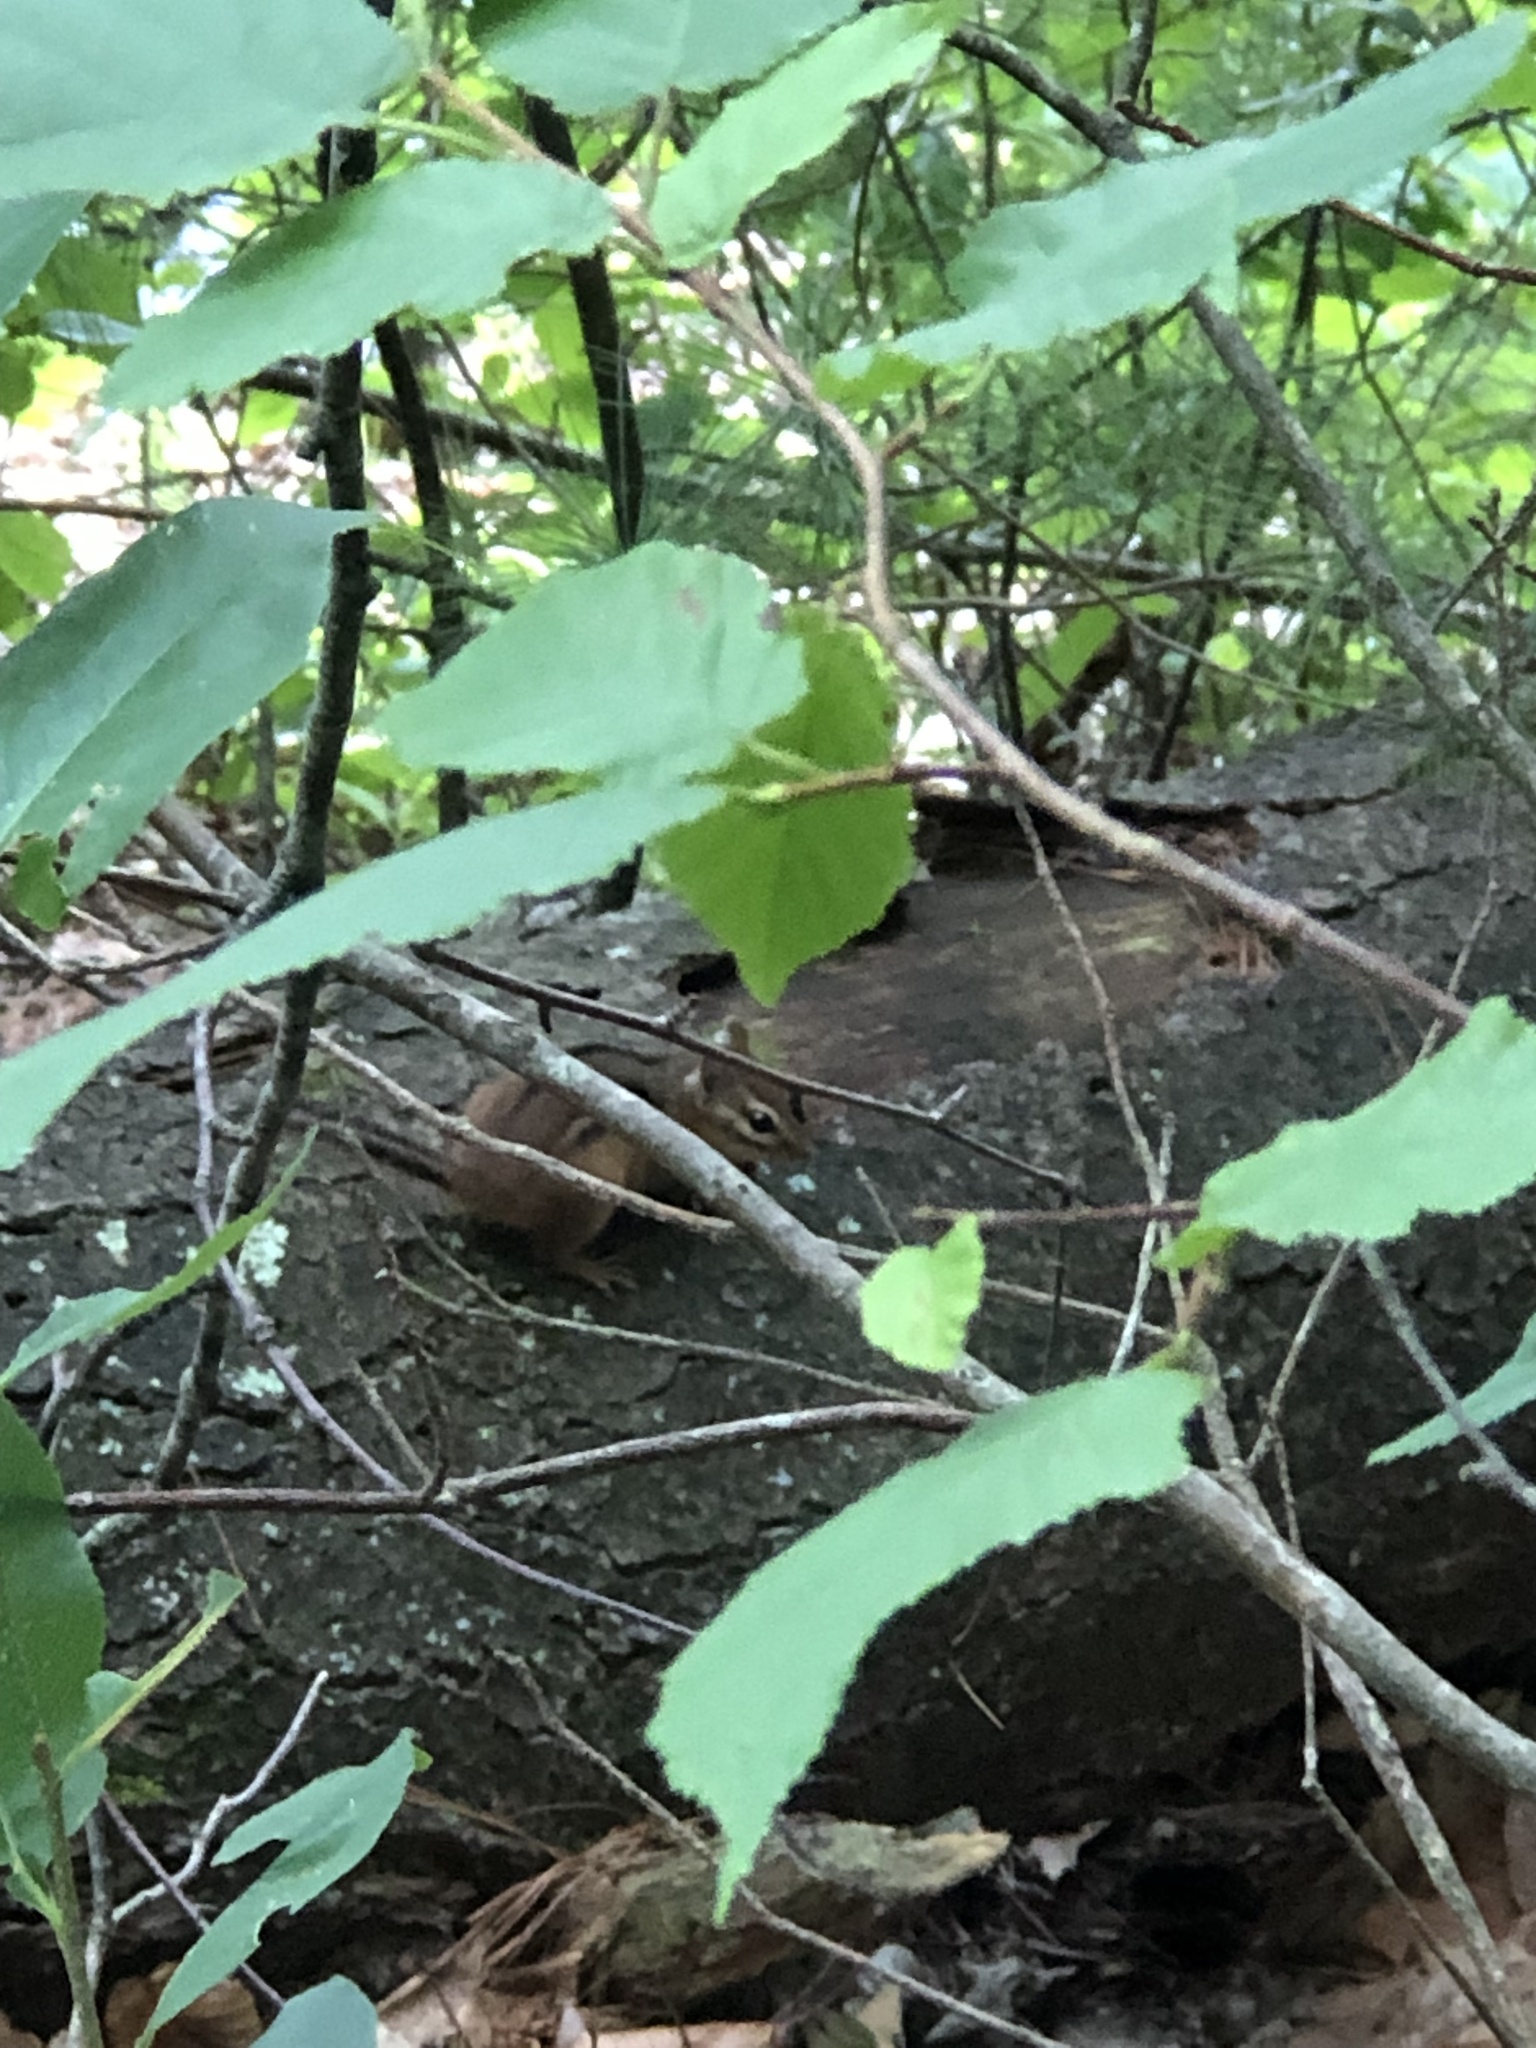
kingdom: Animalia
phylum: Chordata
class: Mammalia
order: Rodentia
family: Sciuridae
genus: Tamias
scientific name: Tamias striatus
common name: Eastern chipmunk
